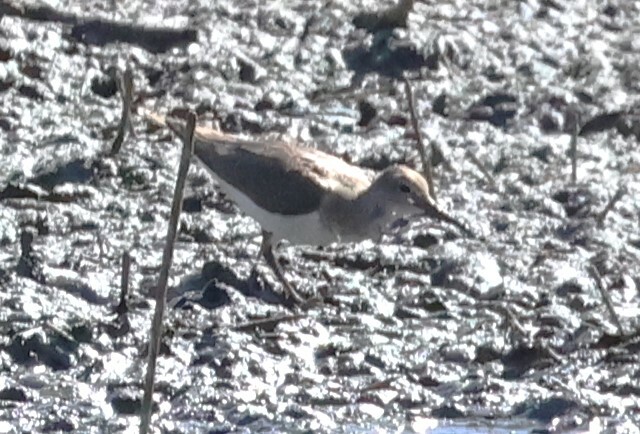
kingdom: Animalia
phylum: Chordata
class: Aves
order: Charadriiformes
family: Scolopacidae
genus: Actitis
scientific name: Actitis hypoleucos
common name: Common sandpiper
